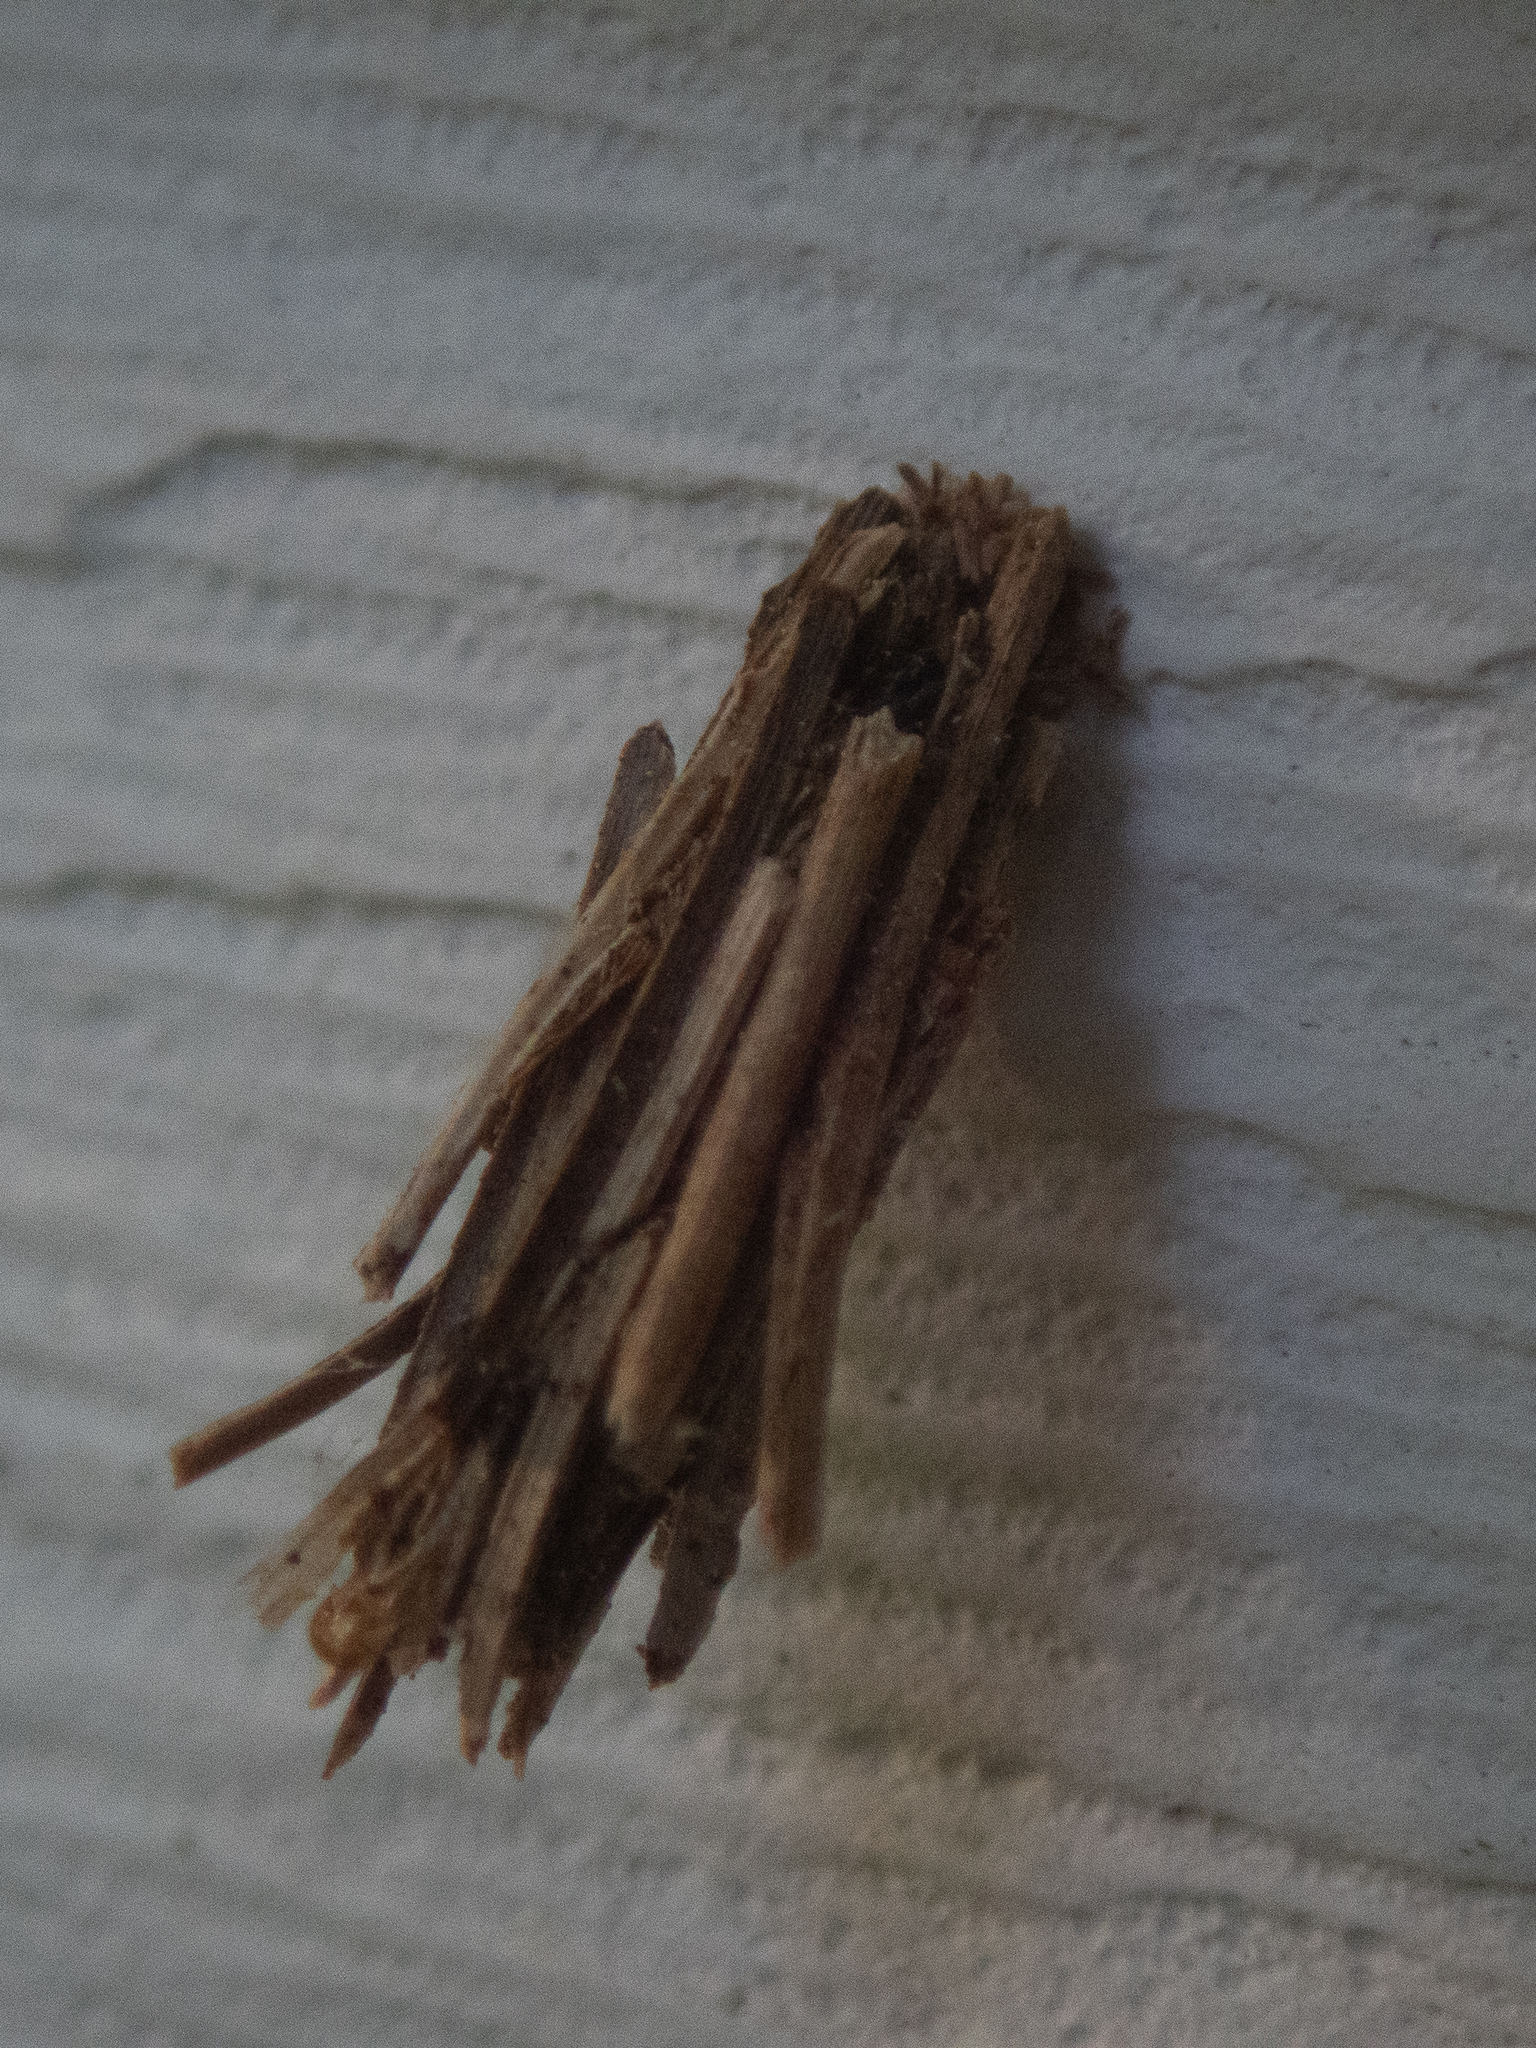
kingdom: Animalia
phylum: Arthropoda
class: Insecta
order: Lepidoptera
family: Psychidae
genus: Psyche
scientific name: Psyche casta
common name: Common sweep
